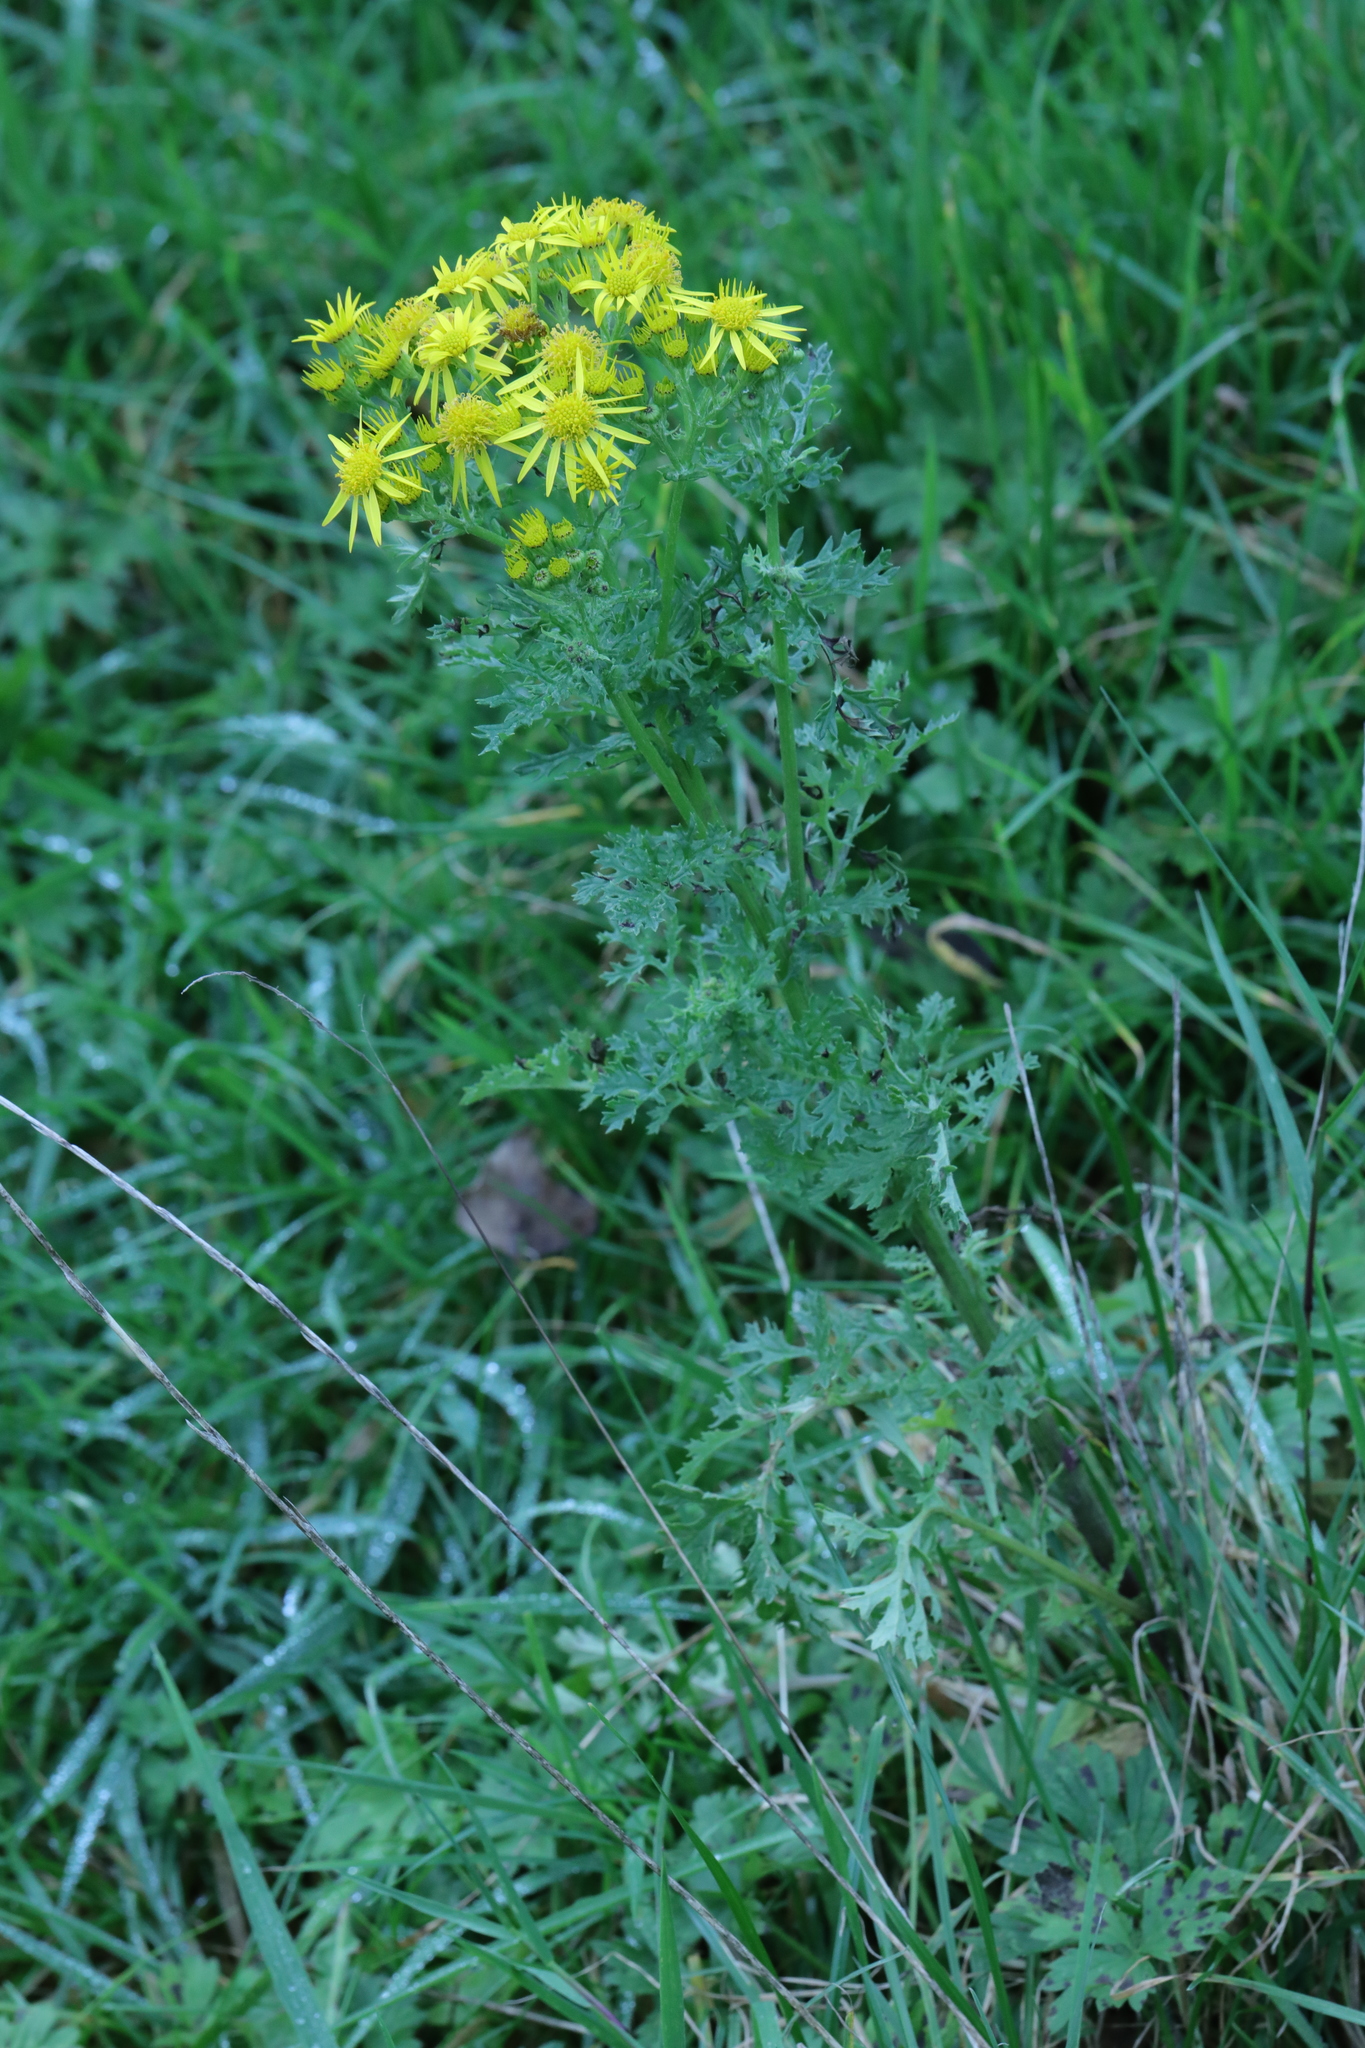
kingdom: Plantae
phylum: Tracheophyta
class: Magnoliopsida
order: Asterales
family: Asteraceae
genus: Jacobaea
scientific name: Jacobaea vulgaris
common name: Stinking willie
